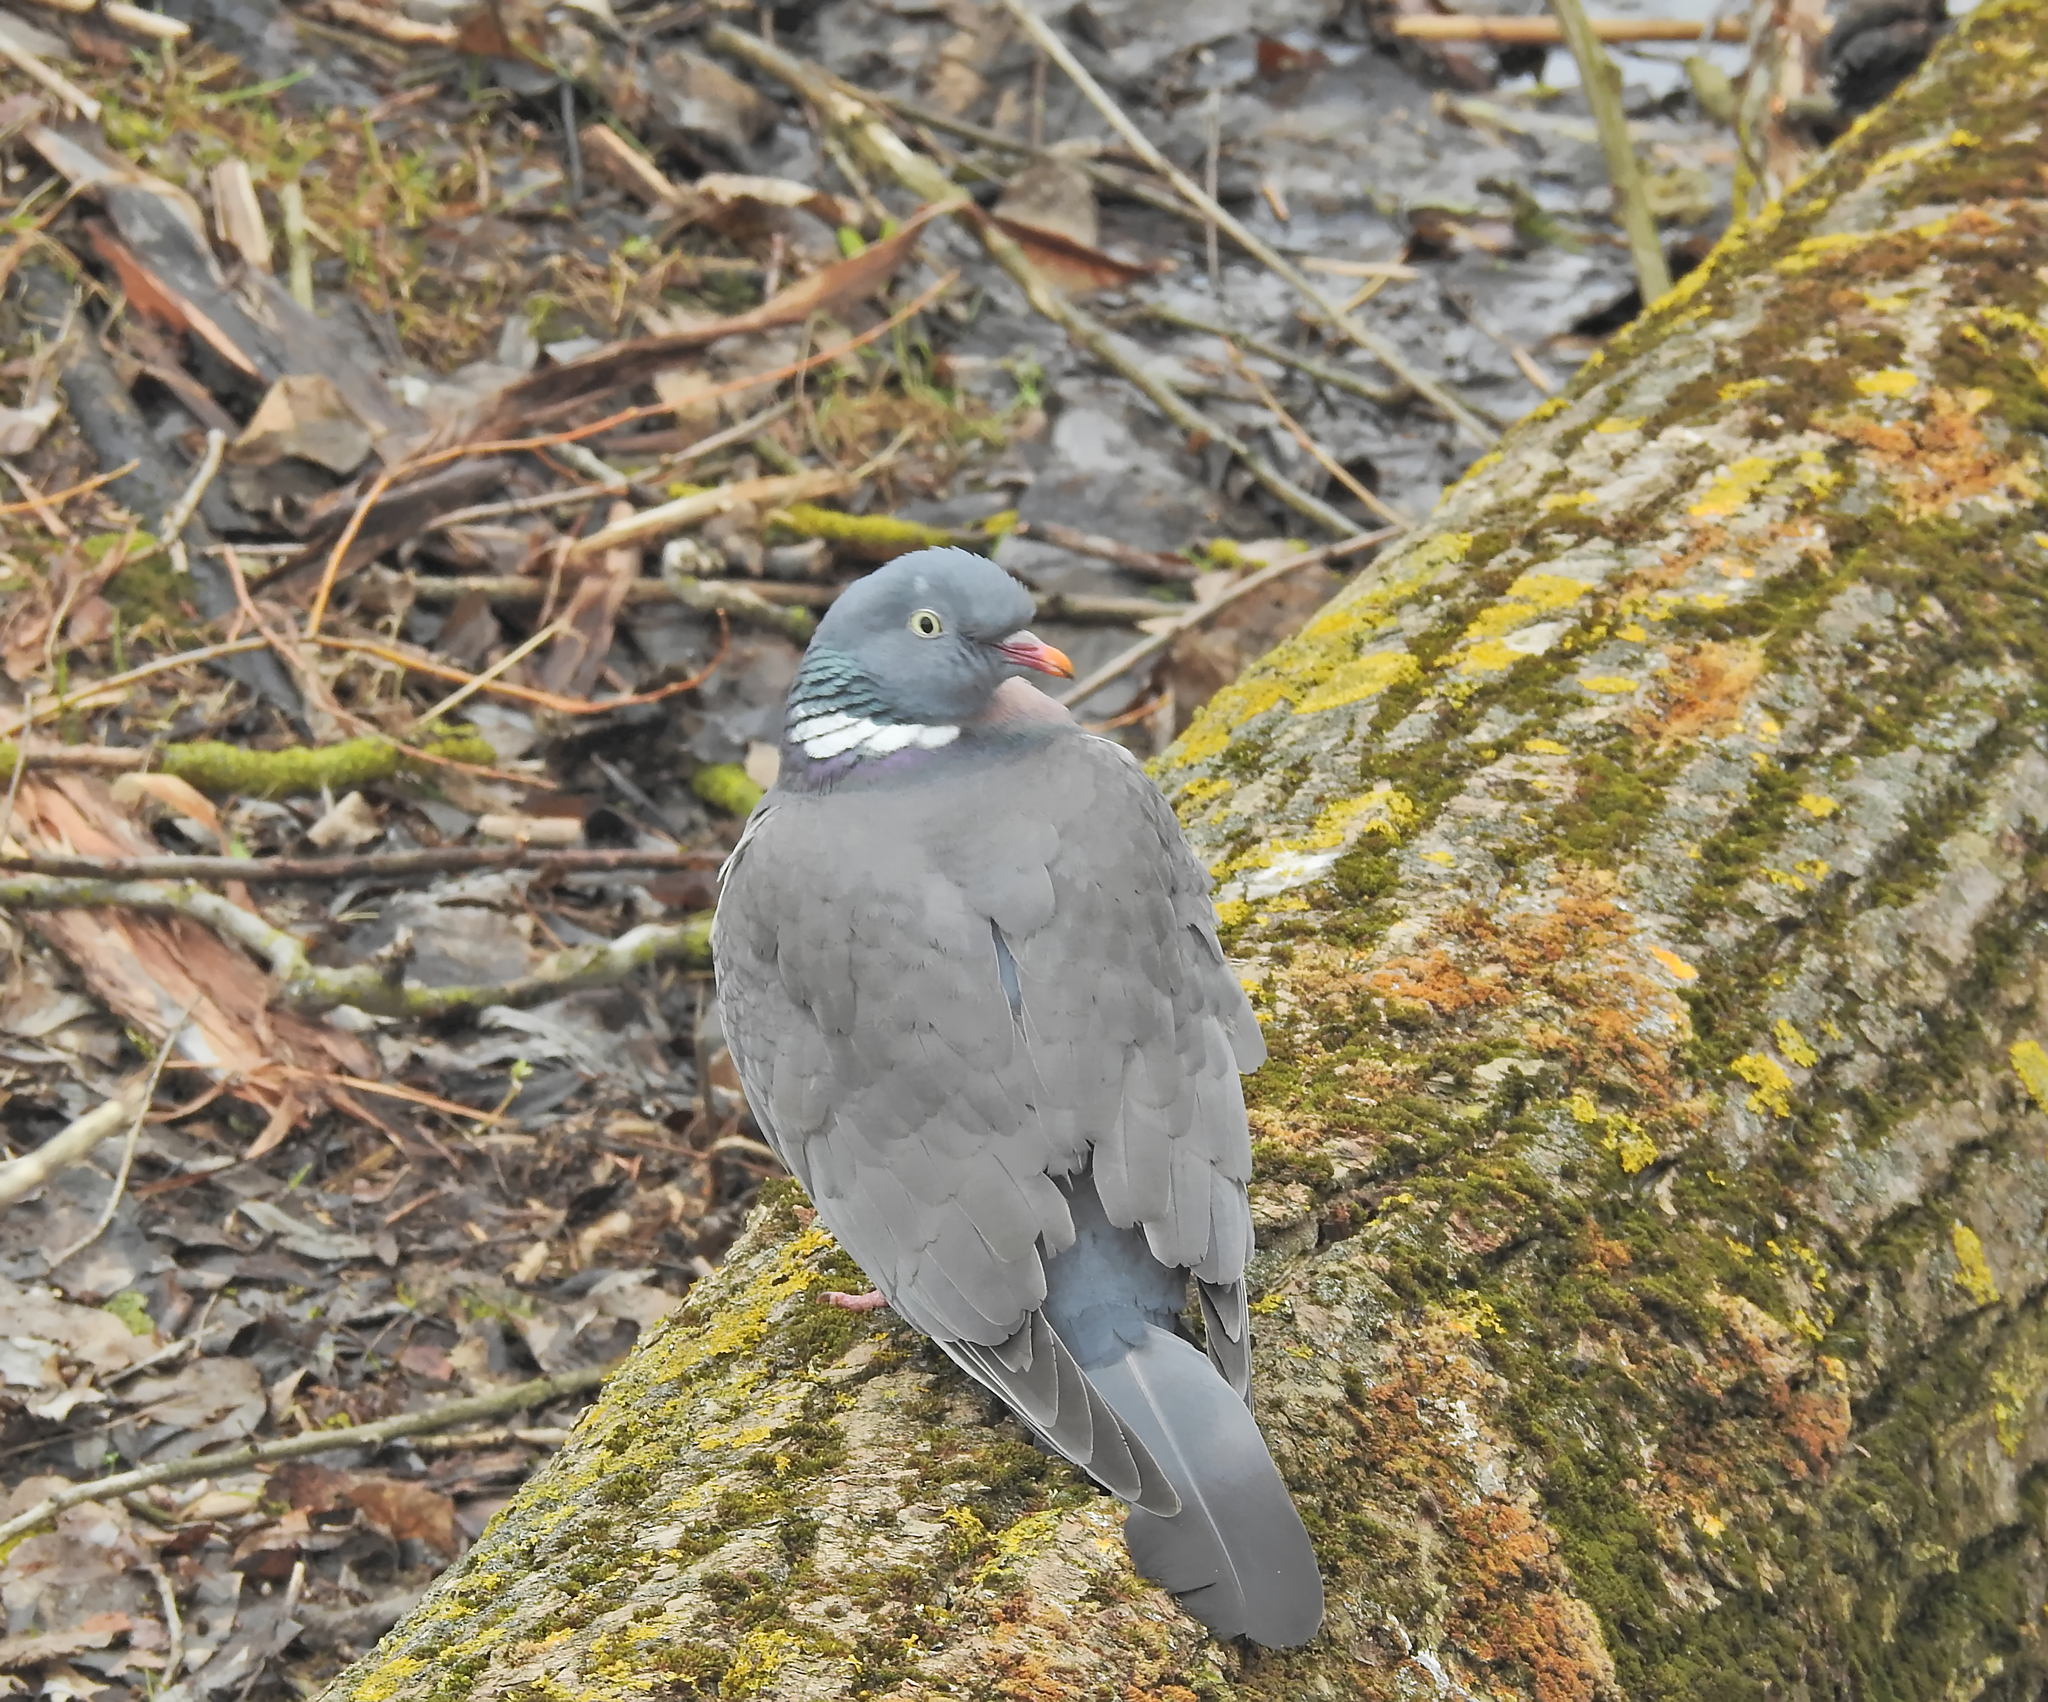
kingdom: Animalia
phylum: Chordata
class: Aves
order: Columbiformes
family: Columbidae
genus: Columba
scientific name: Columba palumbus
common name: Common wood pigeon
